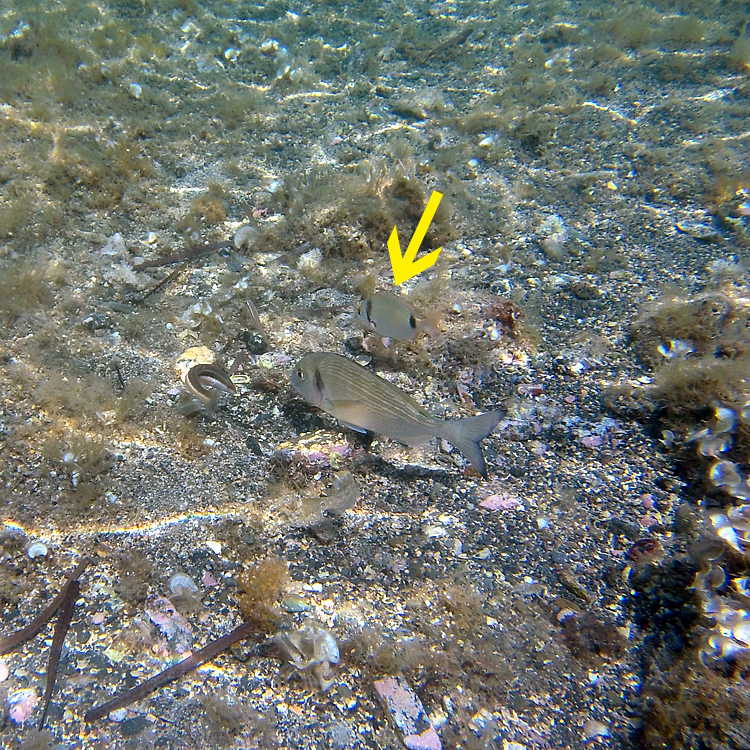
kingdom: Animalia
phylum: Chordata
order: Perciformes
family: Sparidae
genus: Diplodus
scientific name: Diplodus vulgaris
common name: Common two-banded seabream
